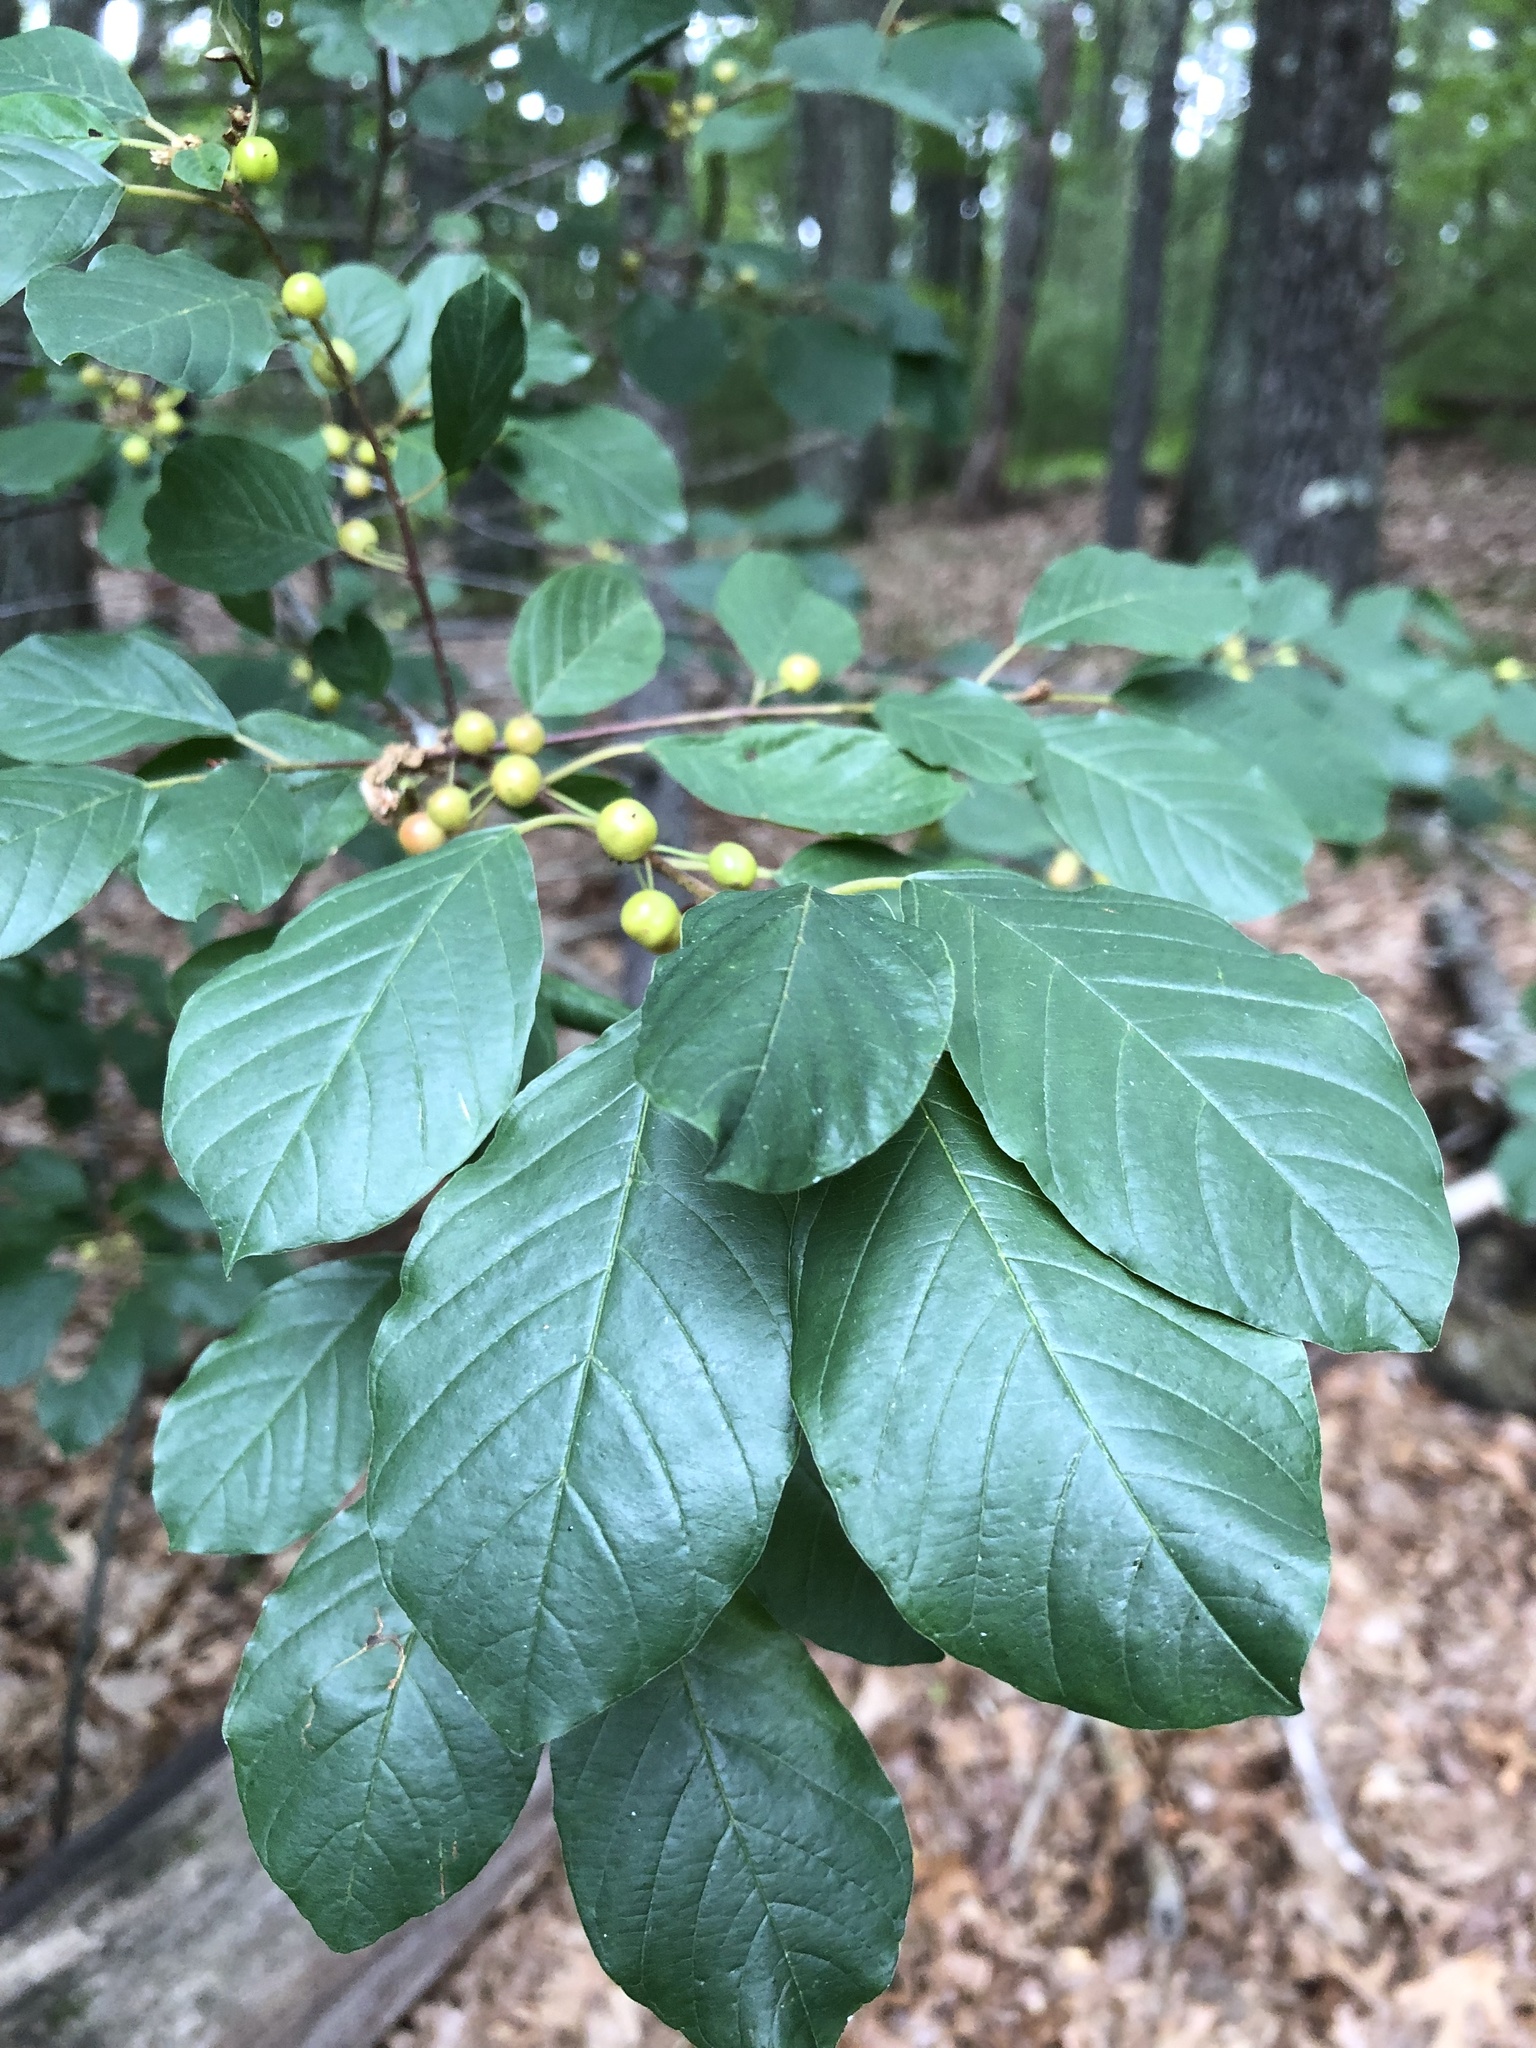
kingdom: Plantae
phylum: Tracheophyta
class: Magnoliopsida
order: Rosales
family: Rhamnaceae
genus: Frangula
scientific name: Frangula alnus
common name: Alder buckthorn
